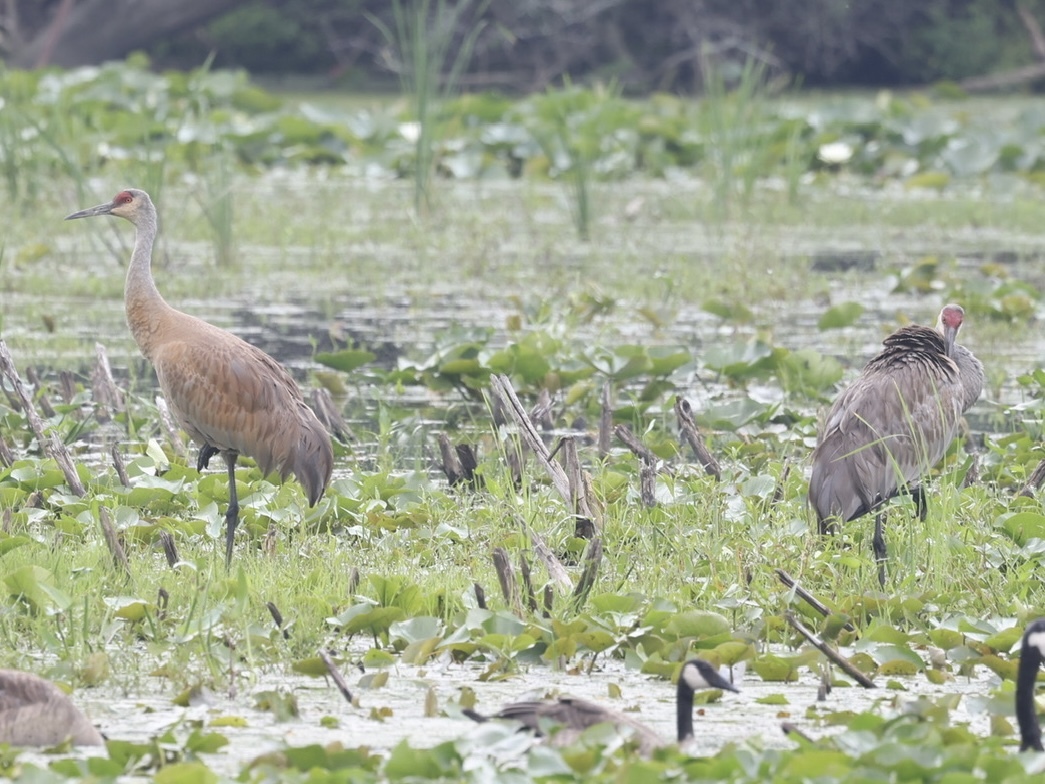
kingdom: Animalia
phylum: Chordata
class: Aves
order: Gruiformes
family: Gruidae
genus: Grus
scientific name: Grus canadensis
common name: Sandhill crane
